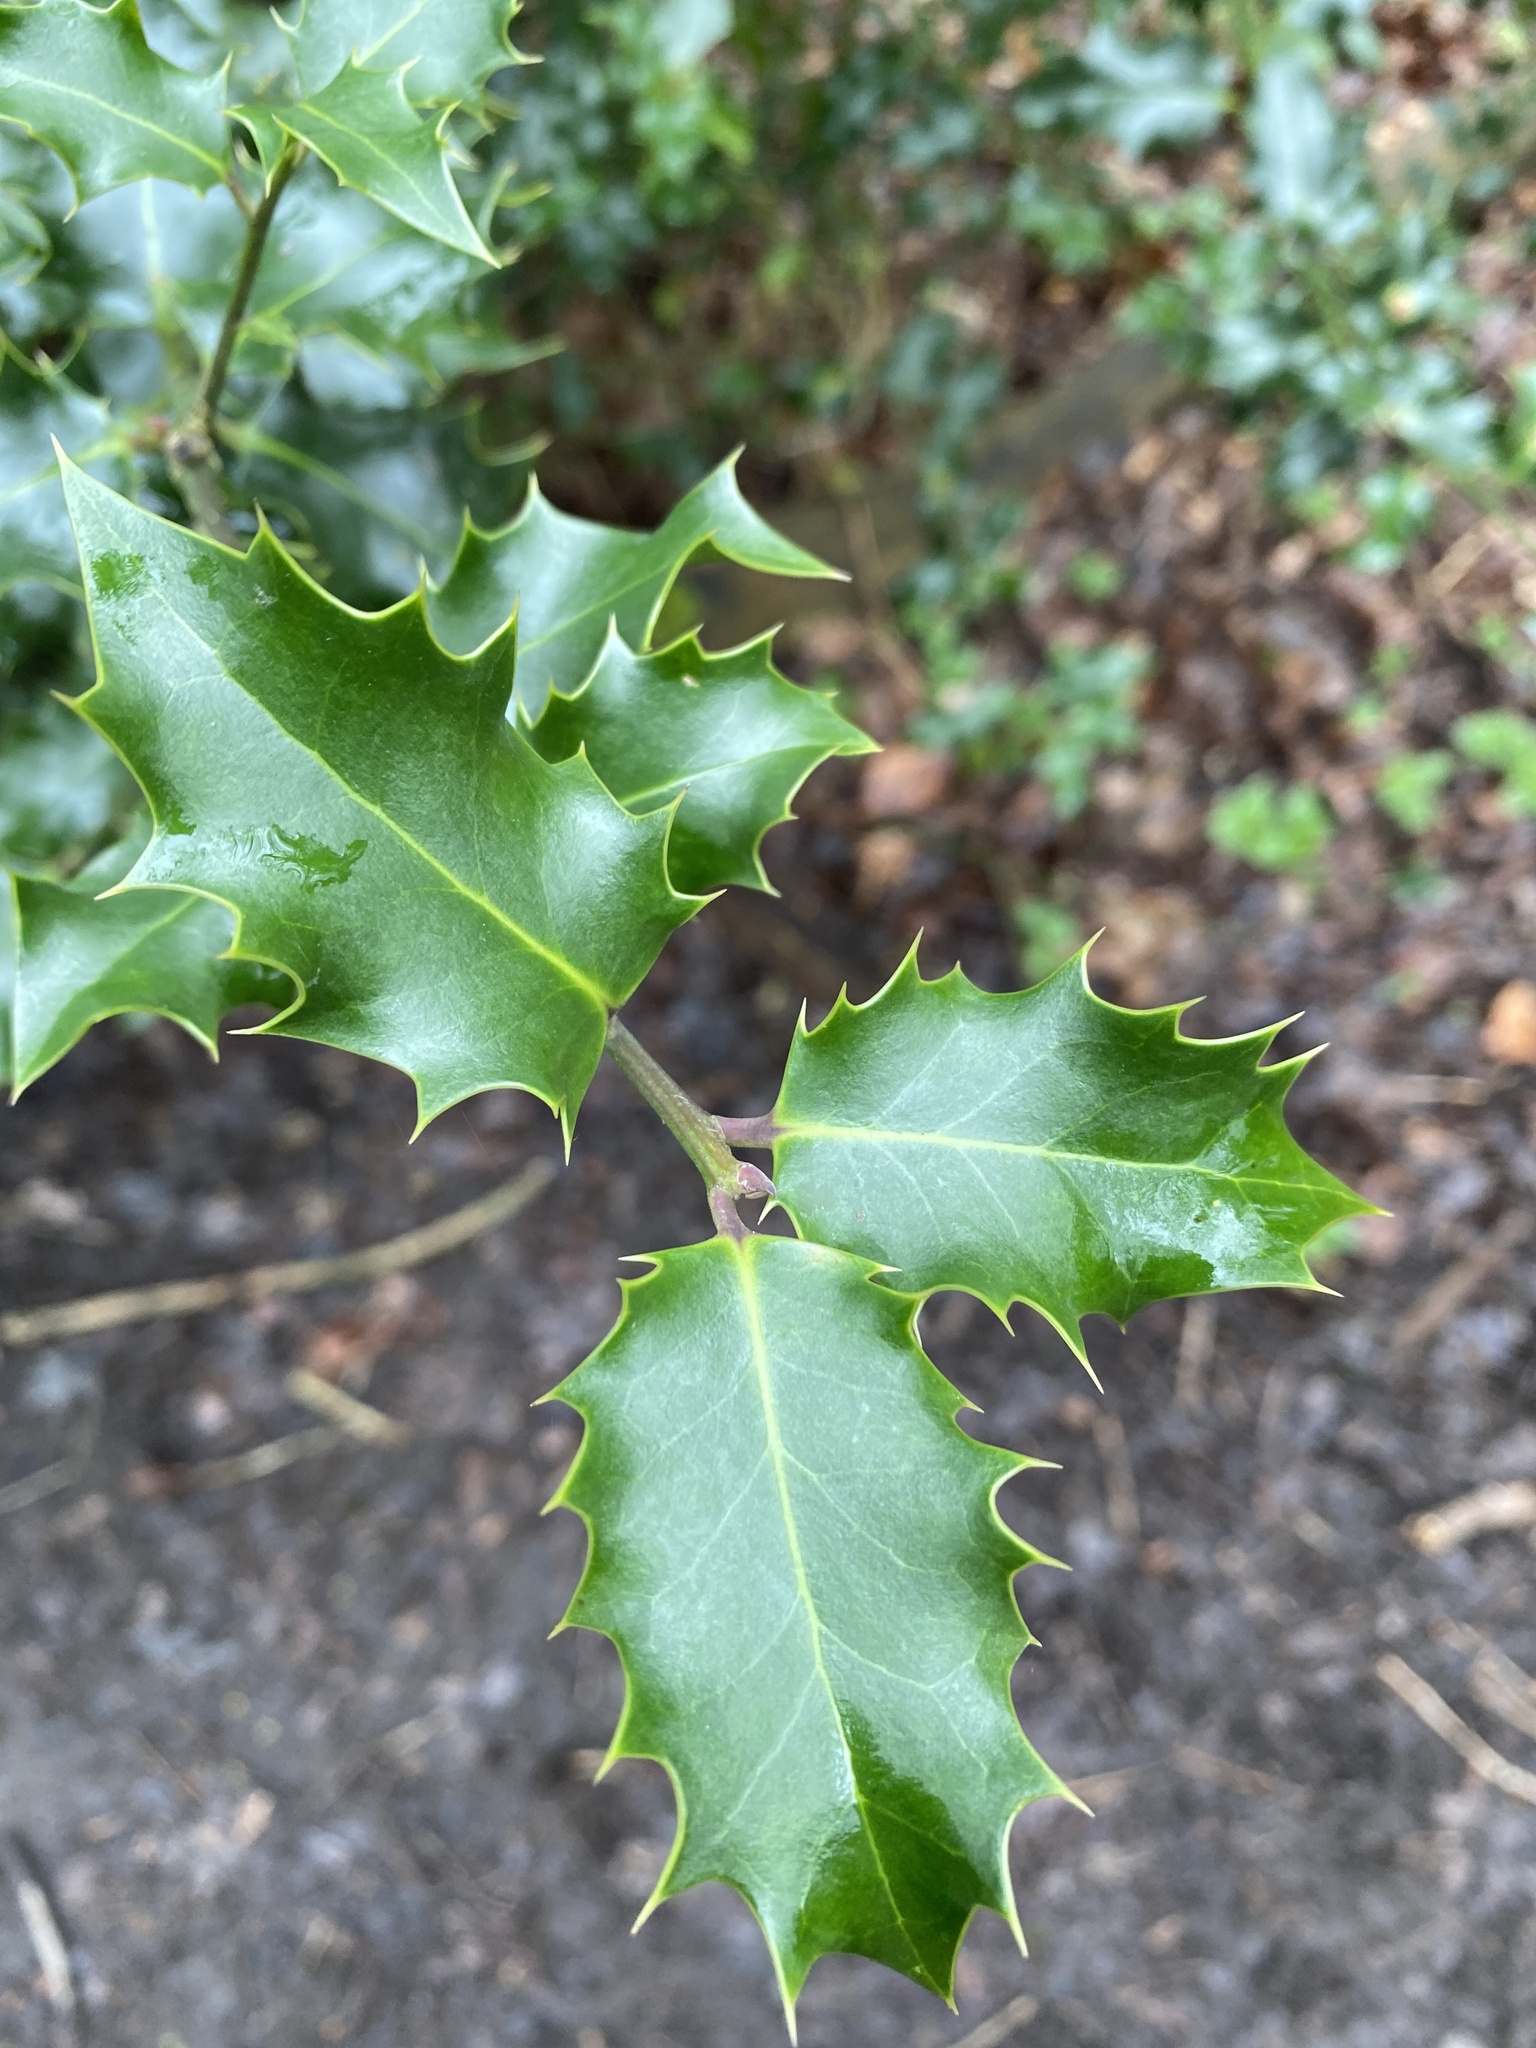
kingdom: Plantae
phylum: Tracheophyta
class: Magnoliopsida
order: Aquifoliales
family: Aquifoliaceae
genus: Ilex
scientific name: Ilex aquifolium
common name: English holly
